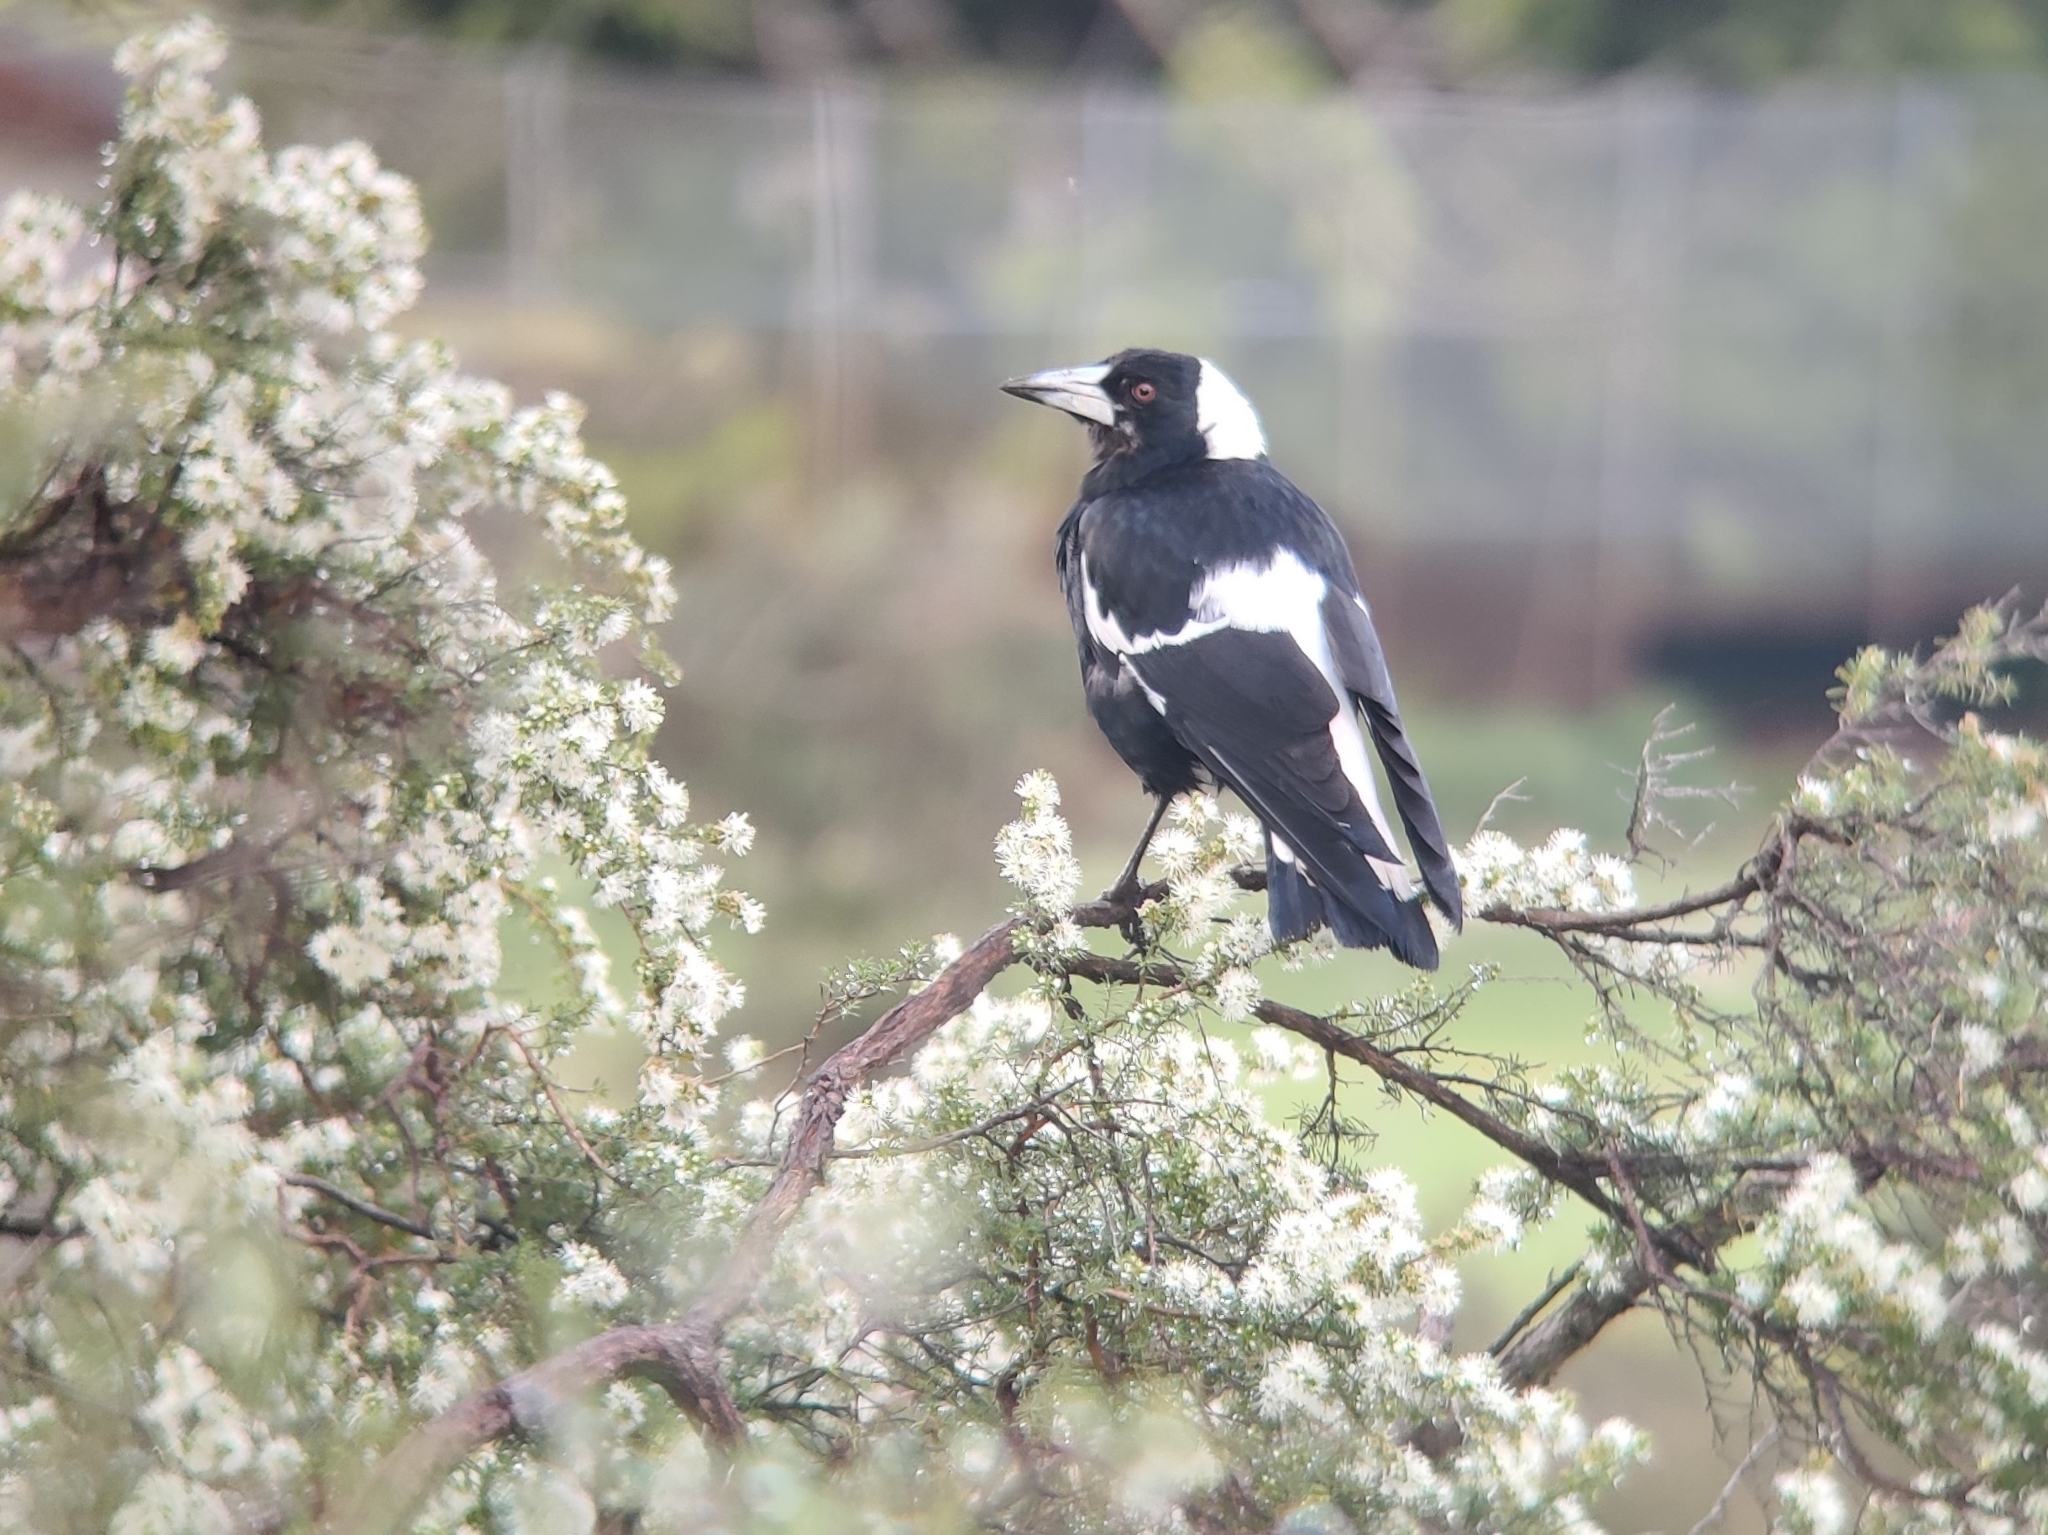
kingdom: Animalia
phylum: Chordata
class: Aves
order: Passeriformes
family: Cracticidae
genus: Gymnorhina
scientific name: Gymnorhina tibicen
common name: Australian magpie
